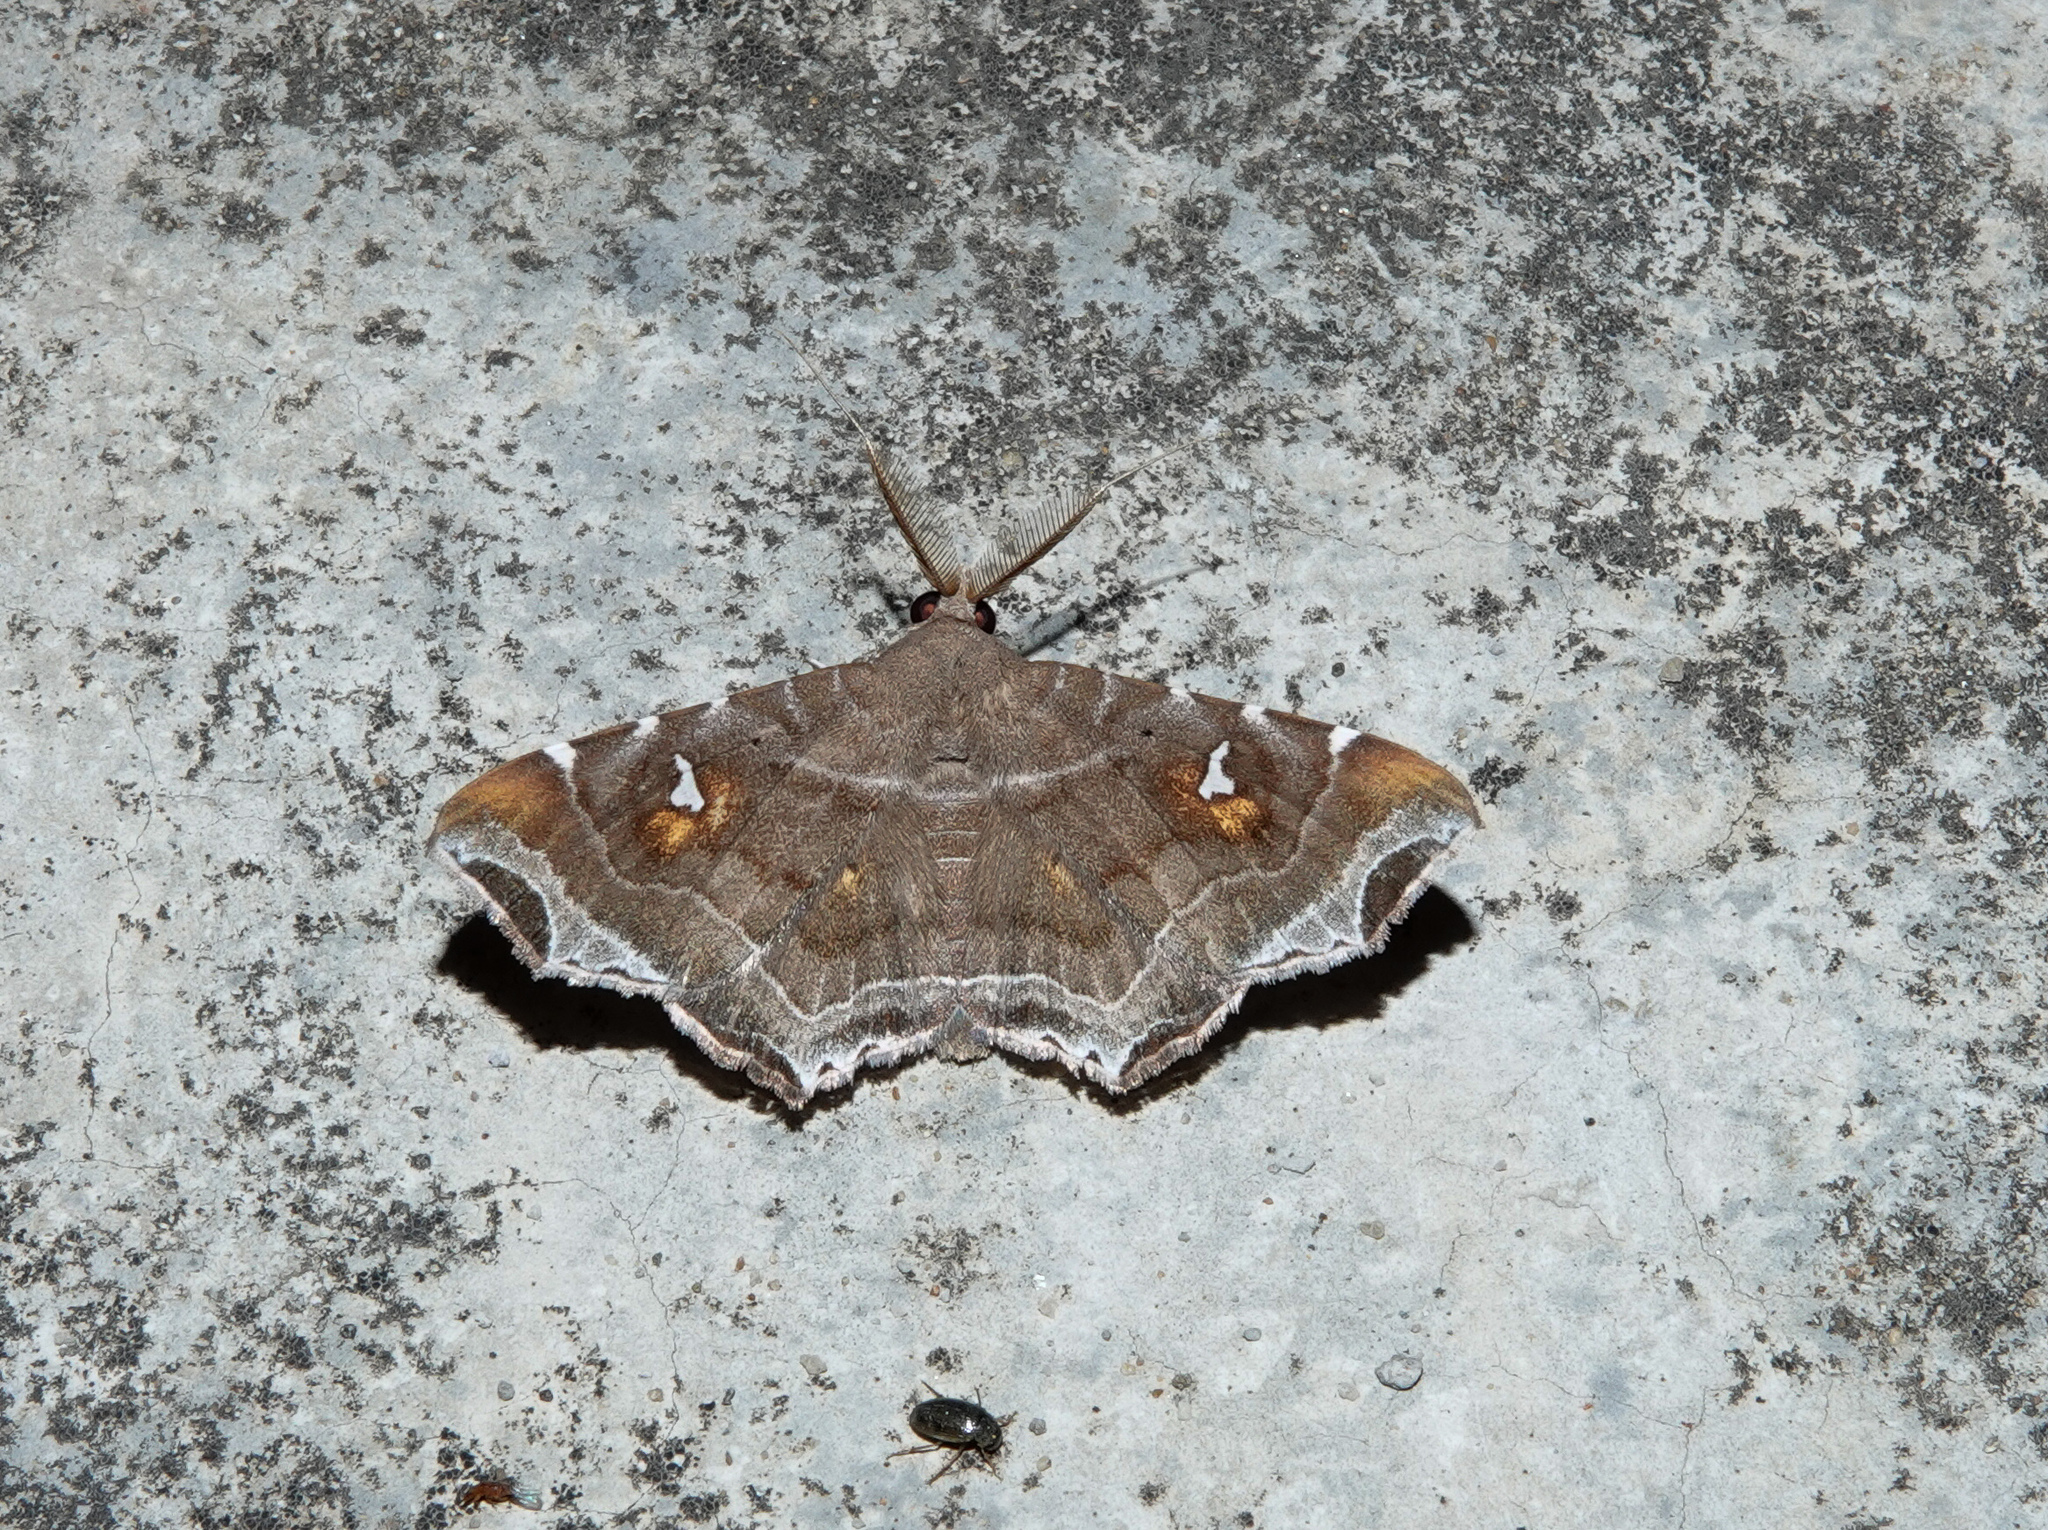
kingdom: Animalia
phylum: Arthropoda
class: Insecta
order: Lepidoptera
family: Erebidae
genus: Episparis
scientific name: Episparis liturata
